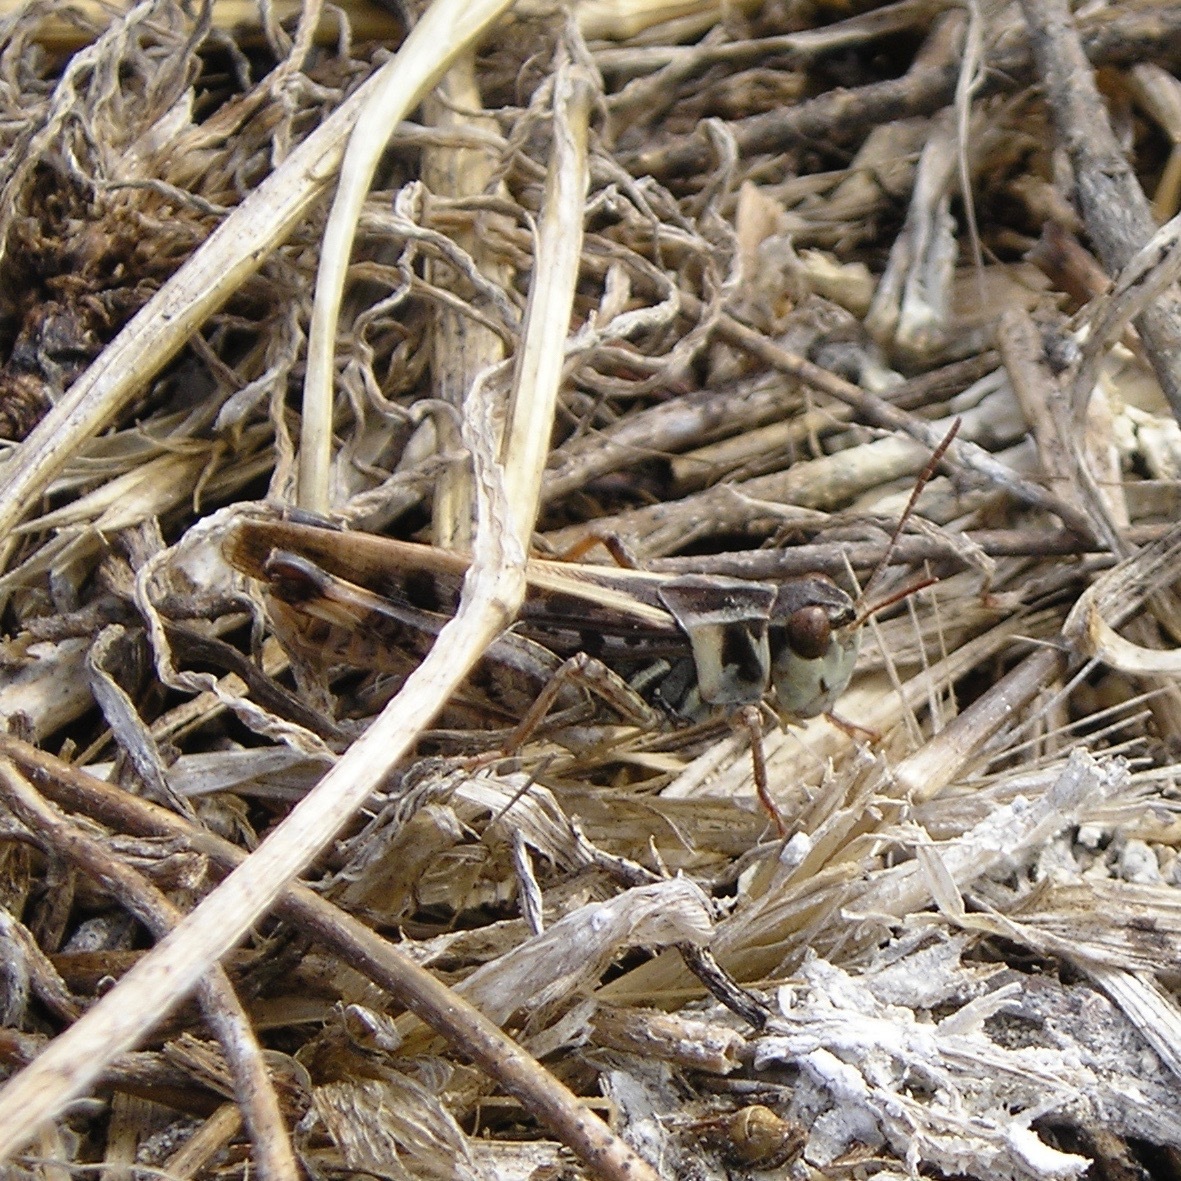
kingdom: Animalia
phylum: Arthropoda
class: Insecta
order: Orthoptera
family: Acrididae
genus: Camnula
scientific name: Camnula pellucida
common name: Clear-winged grasshopper
